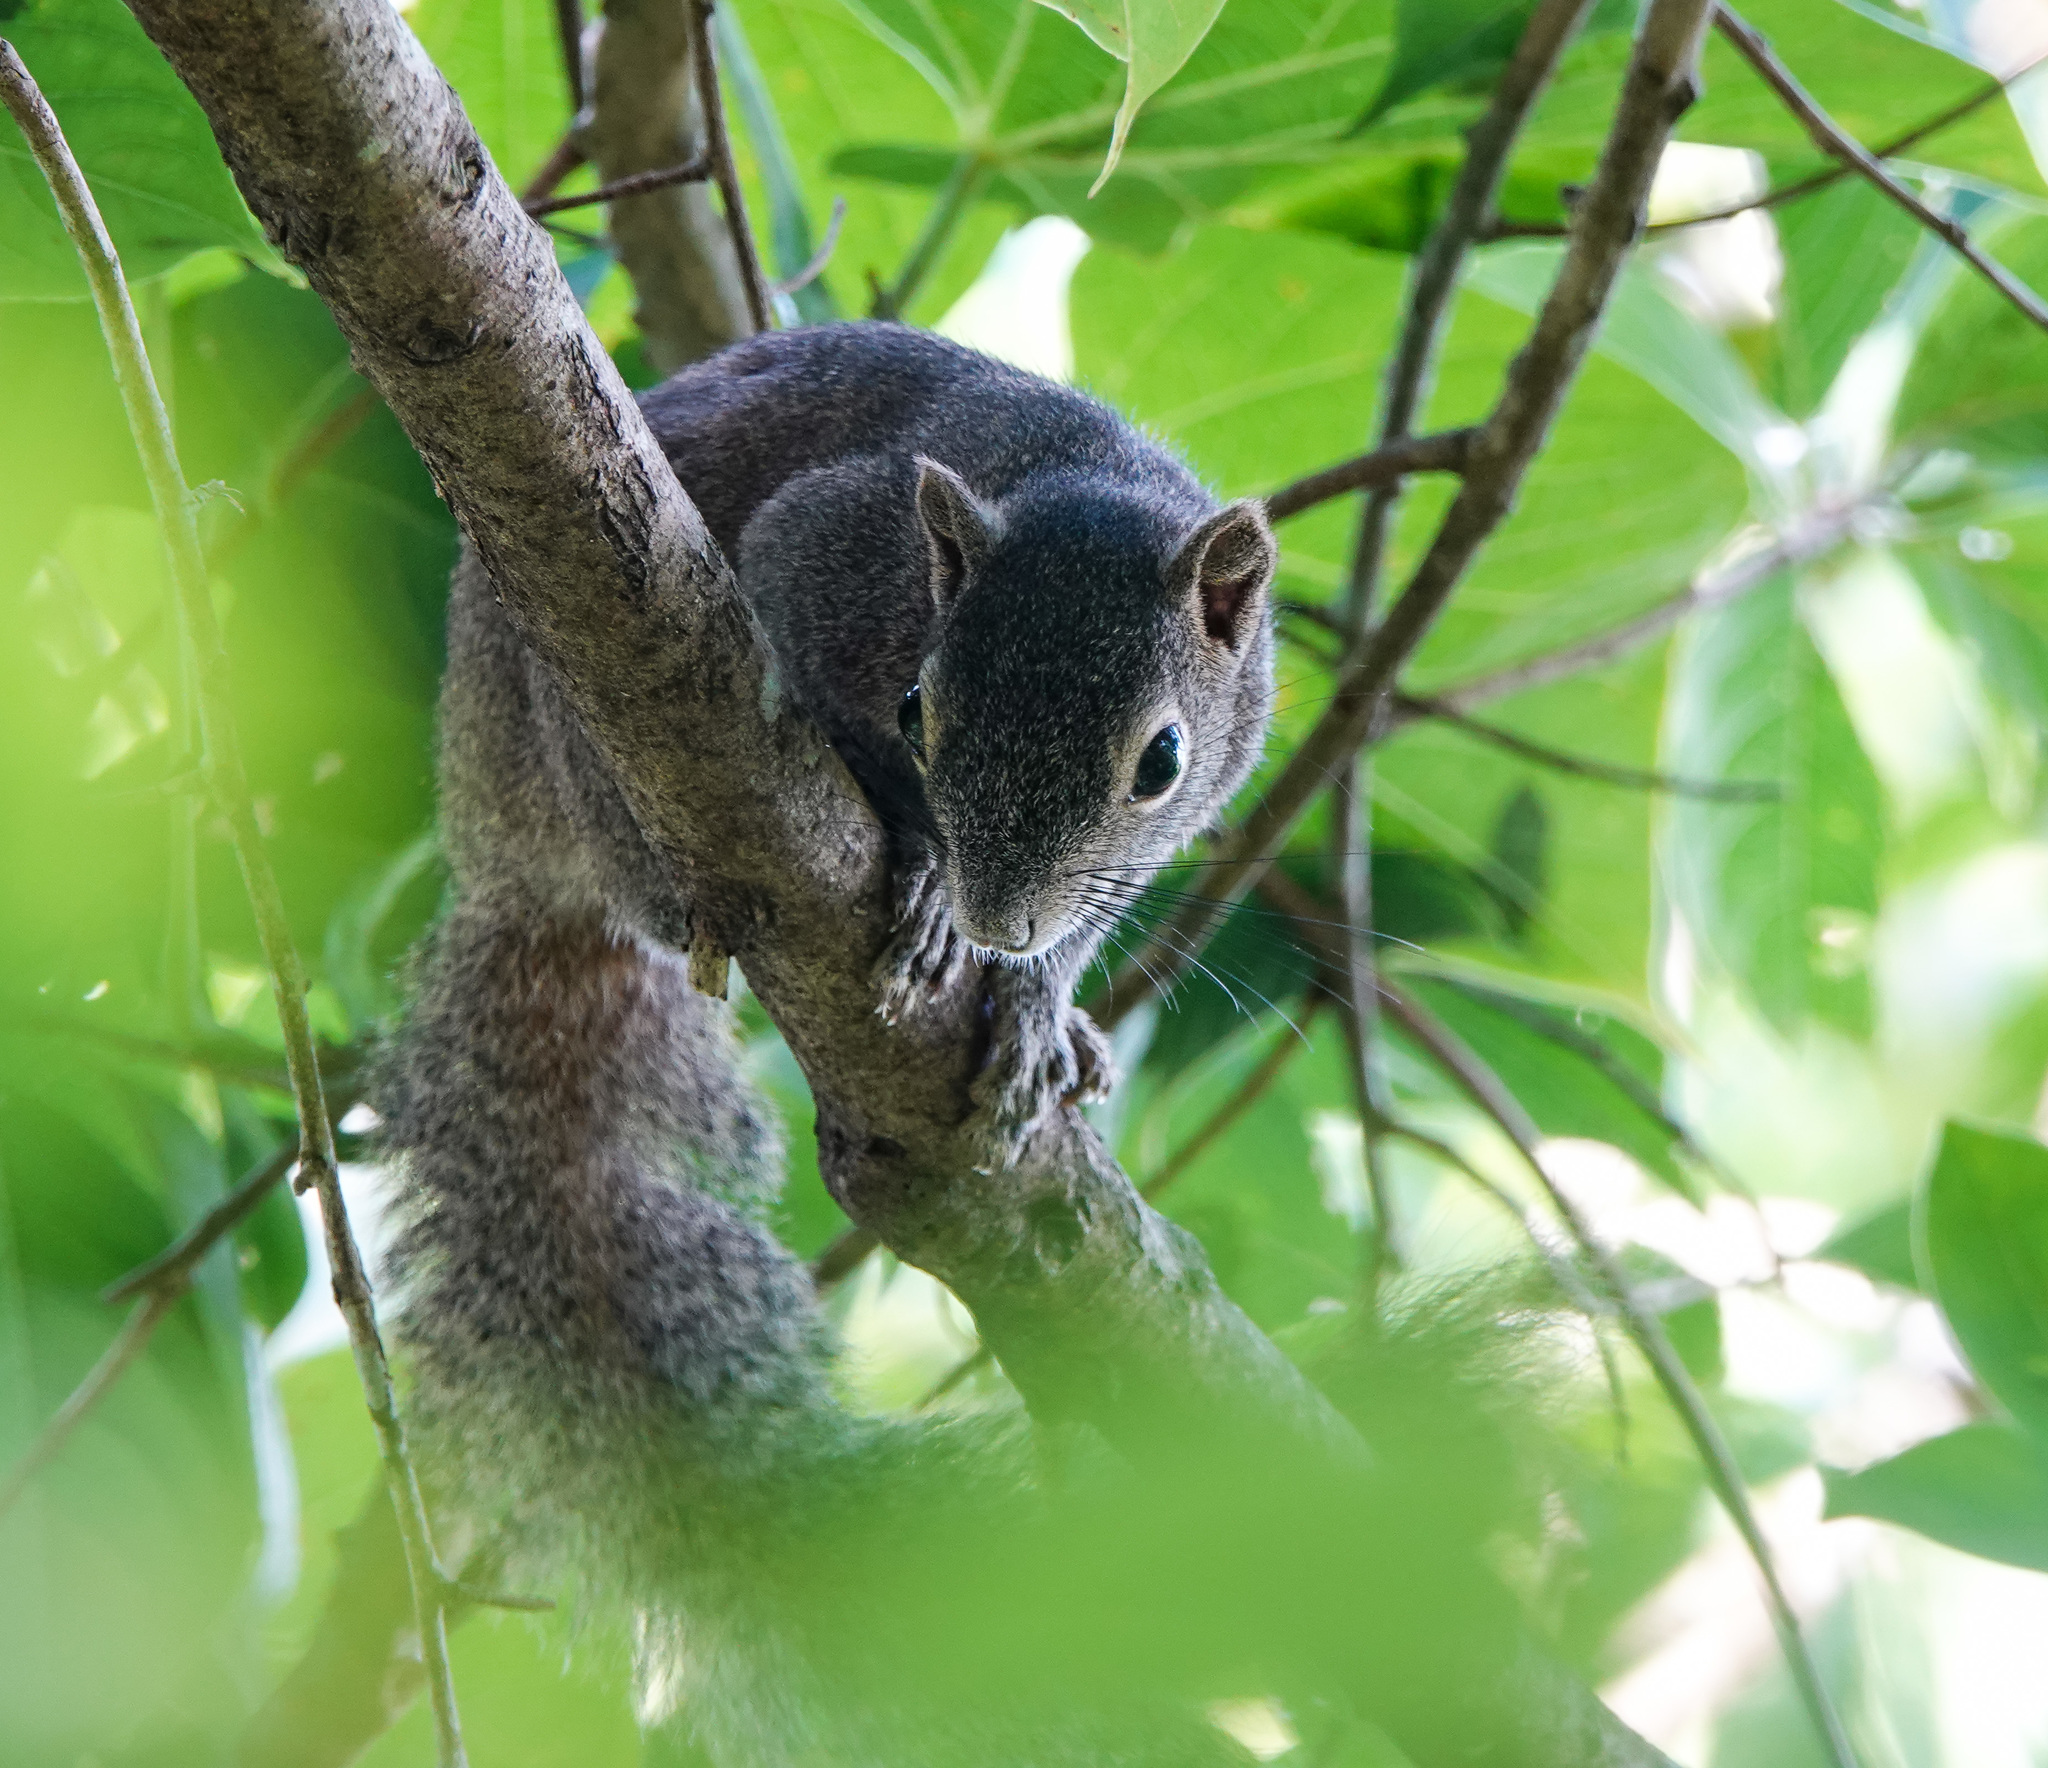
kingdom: Animalia
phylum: Chordata
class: Mammalia
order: Rodentia
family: Sciuridae
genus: Callosciurus
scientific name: Callosciurus pygerythrus
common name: Irrawaddy squirrel
